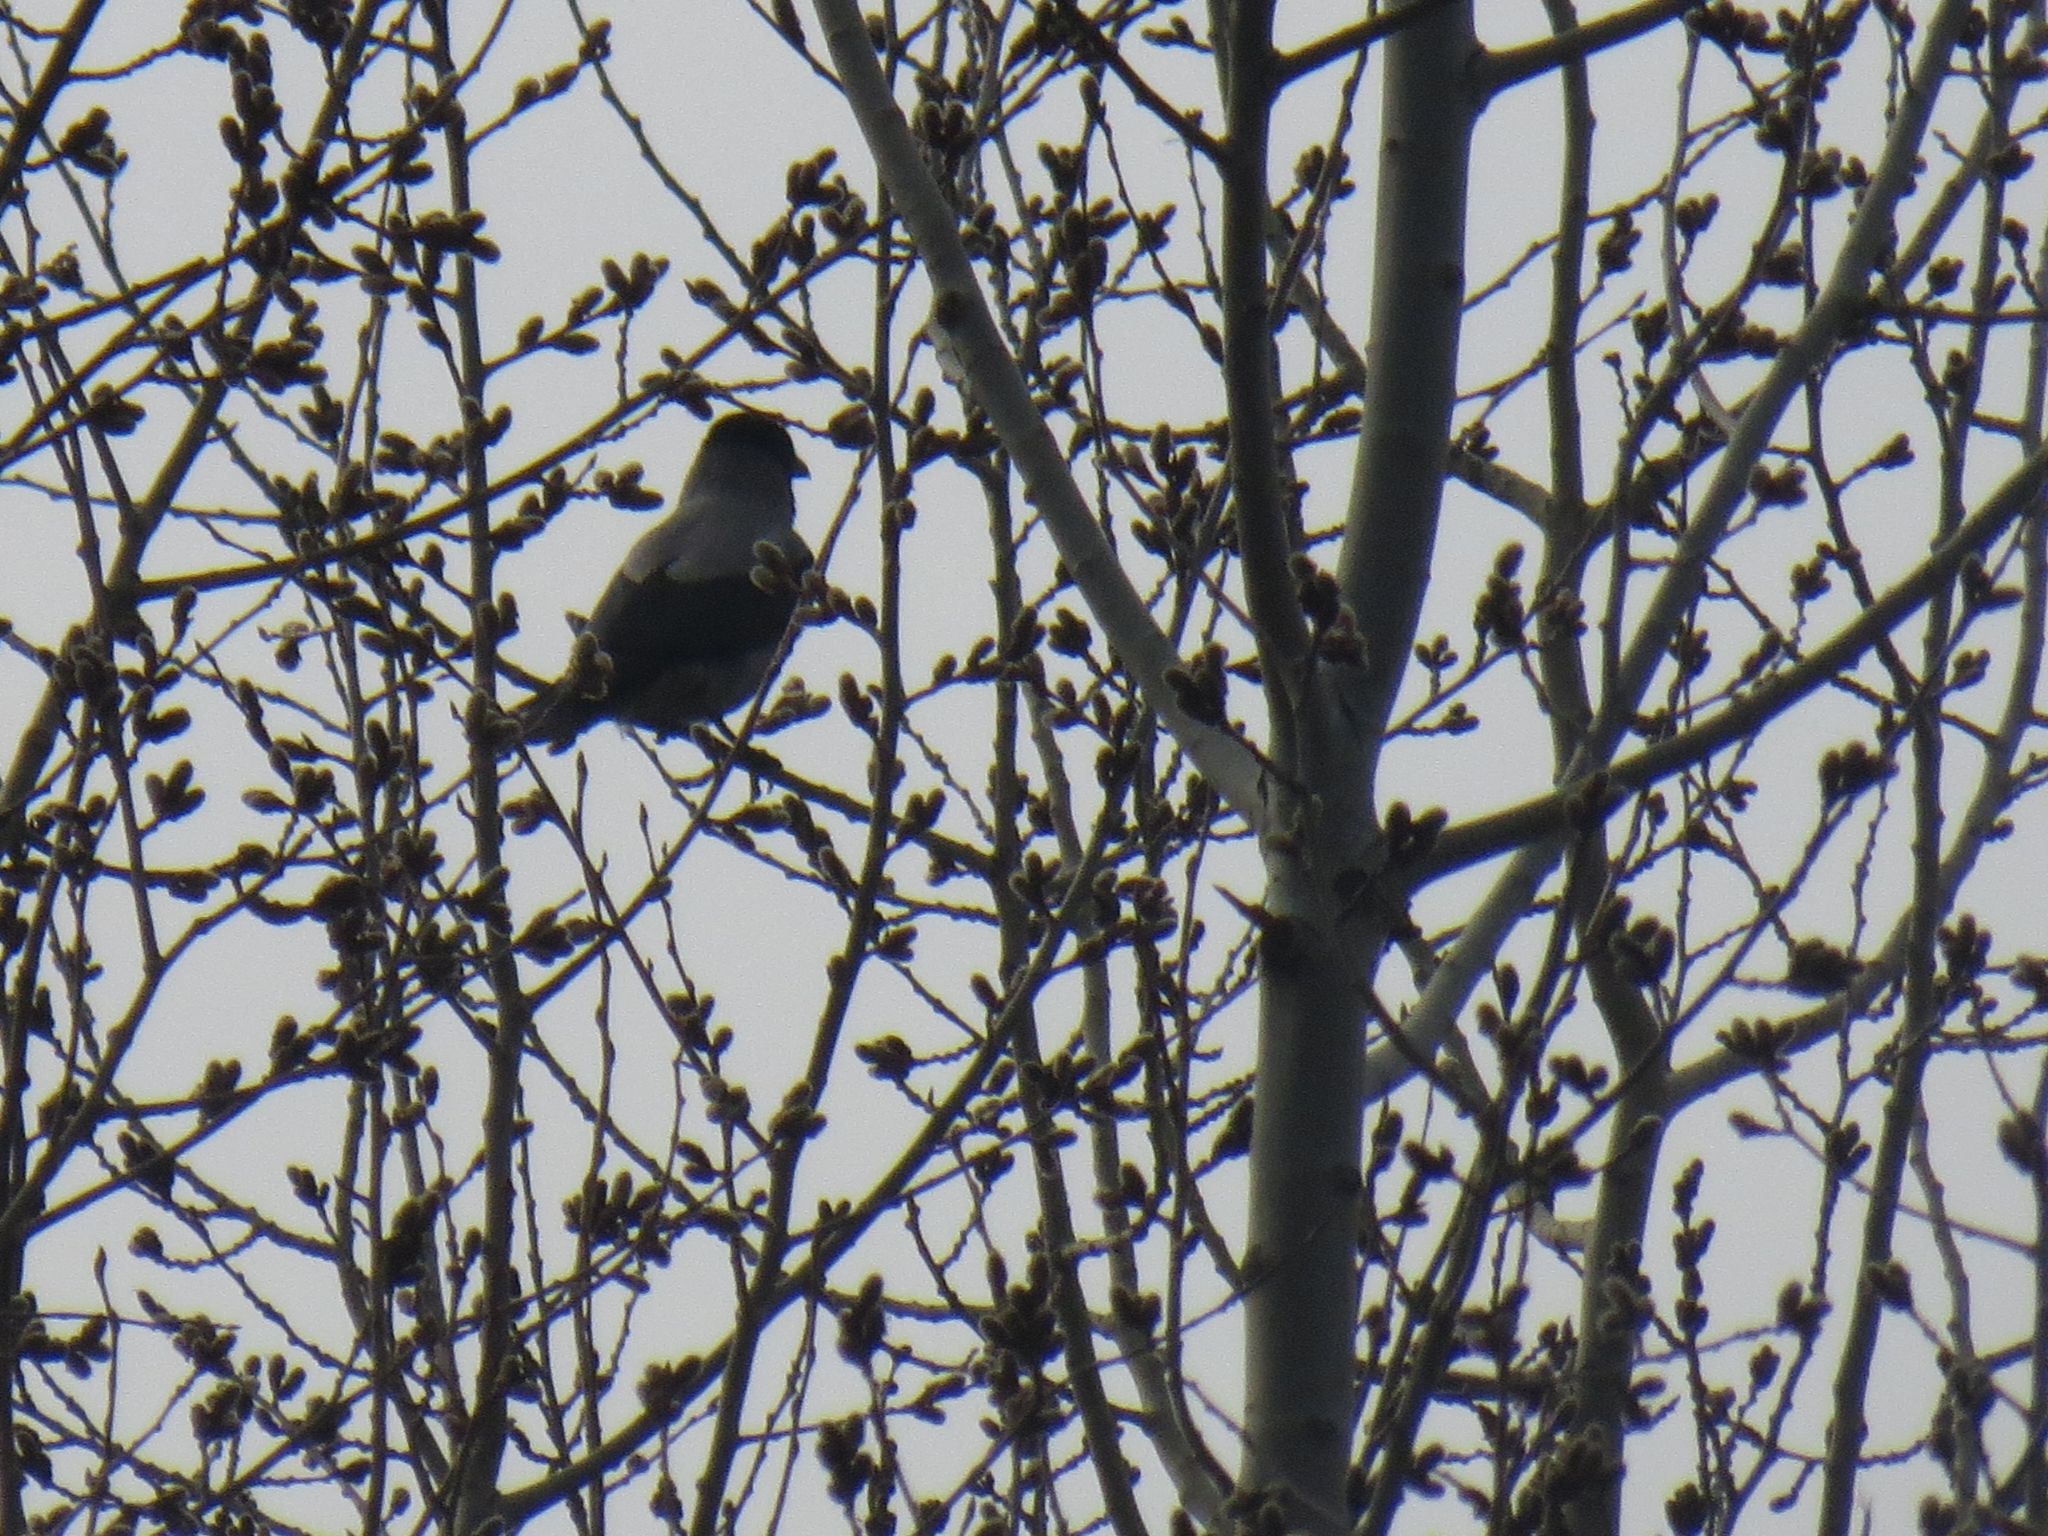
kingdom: Animalia
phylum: Chordata
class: Aves
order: Passeriformes
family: Corvidae
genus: Corvus
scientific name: Corvus cornix
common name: Hooded crow
